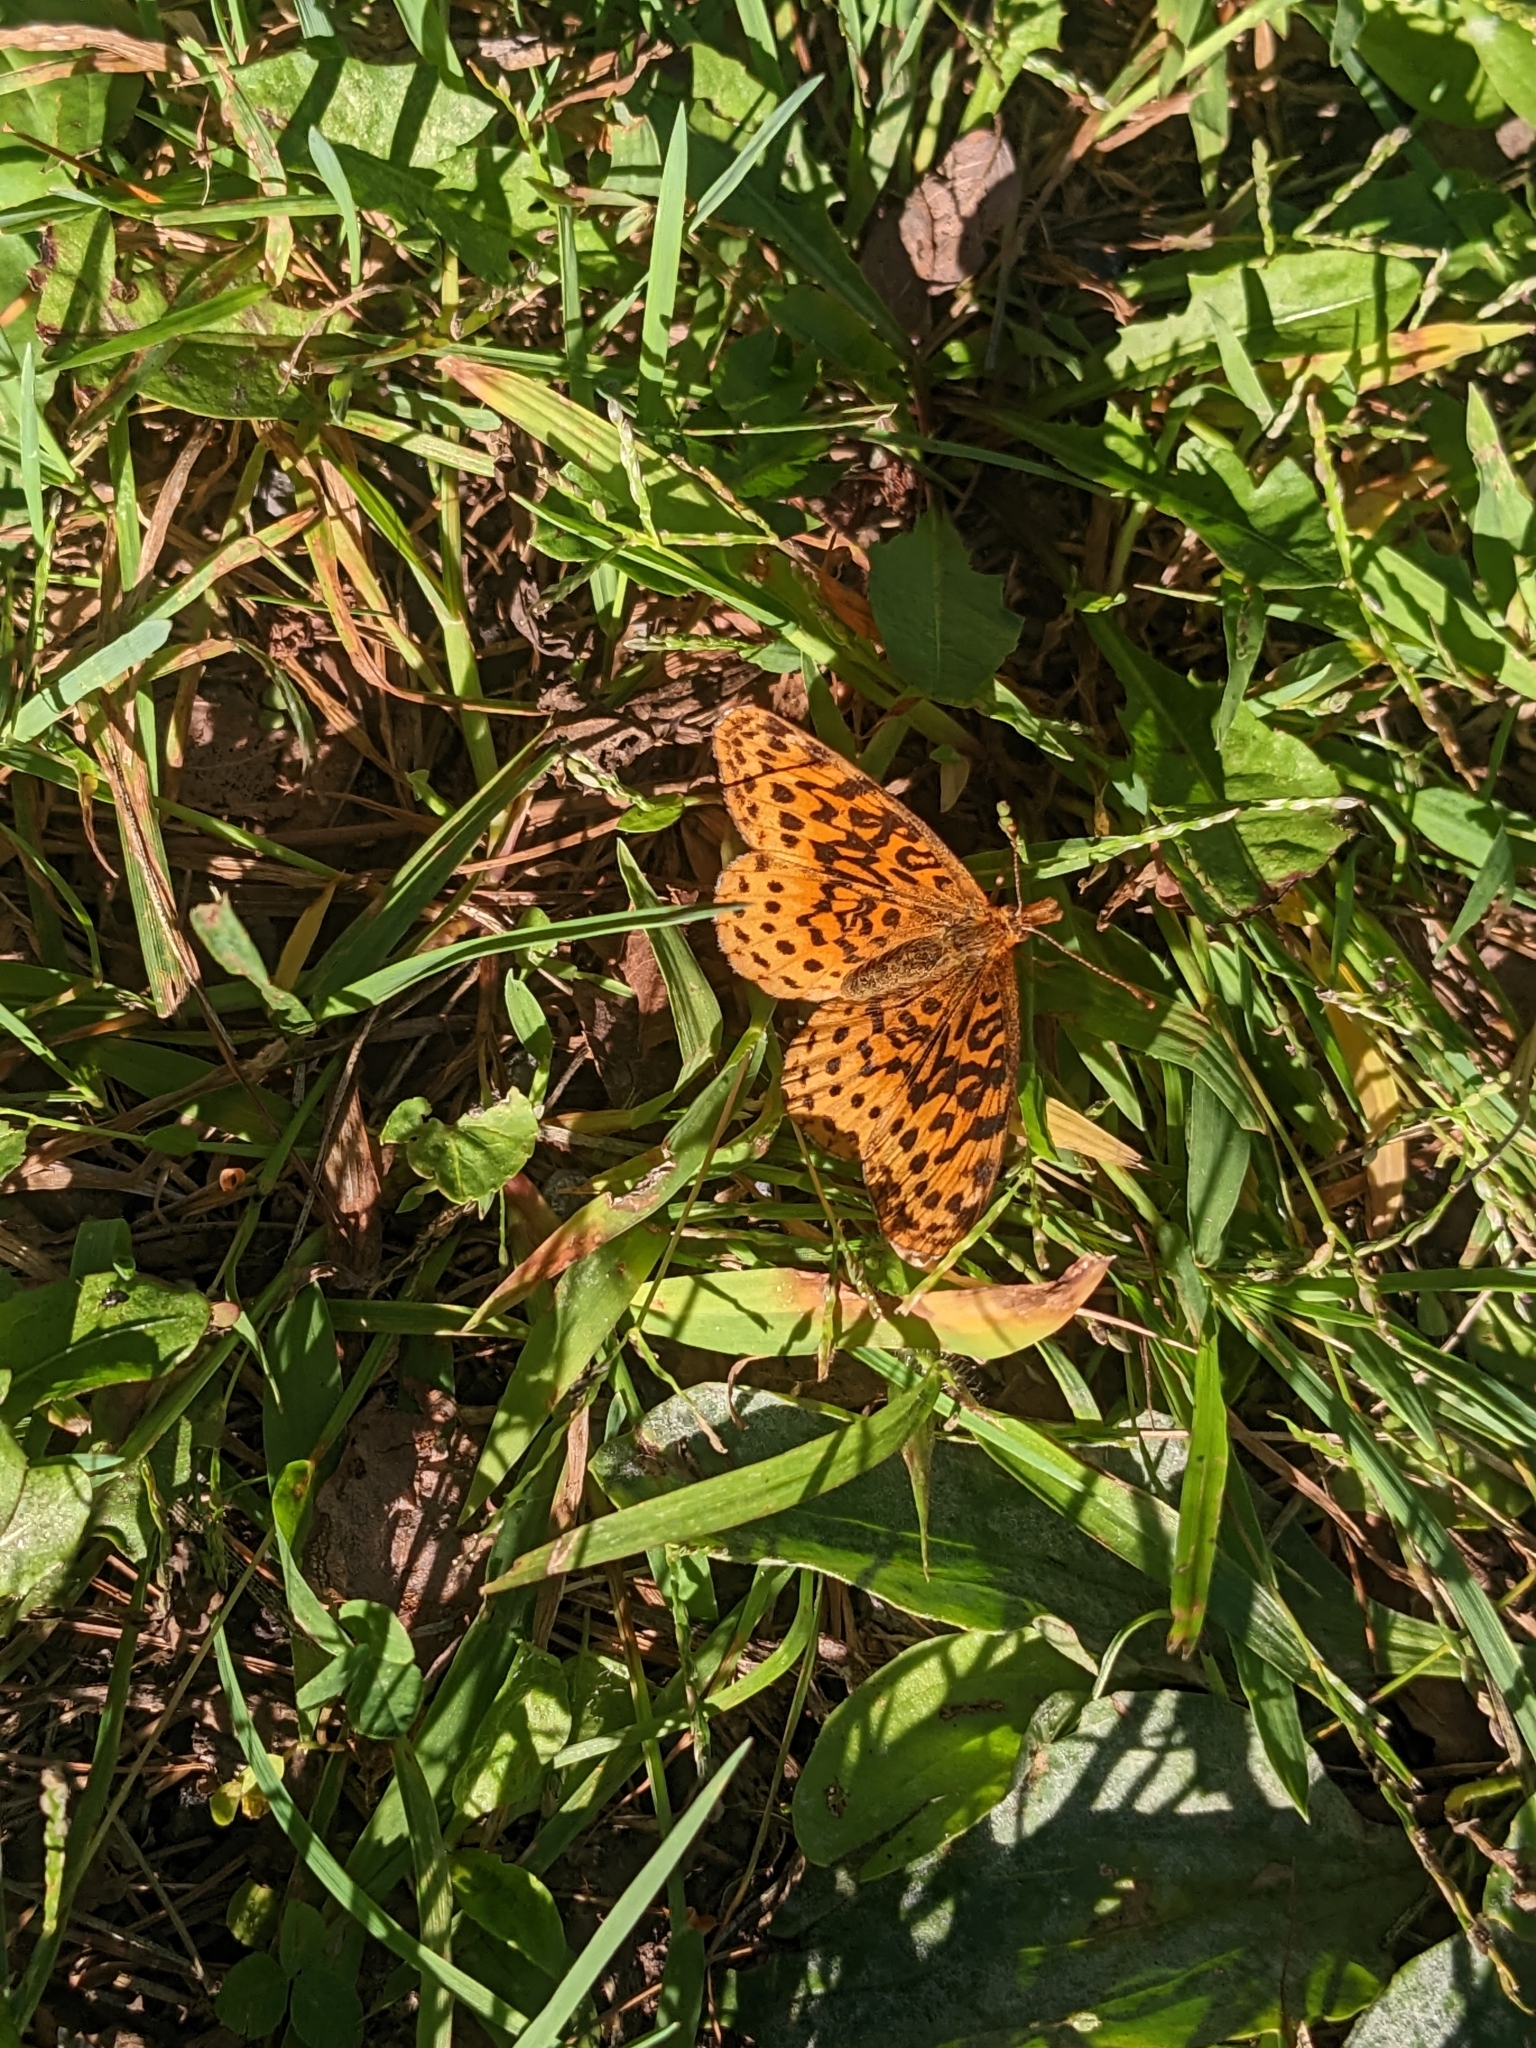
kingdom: Animalia
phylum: Arthropoda
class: Insecta
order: Lepidoptera
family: Nymphalidae
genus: Clossiana
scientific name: Clossiana toddi
